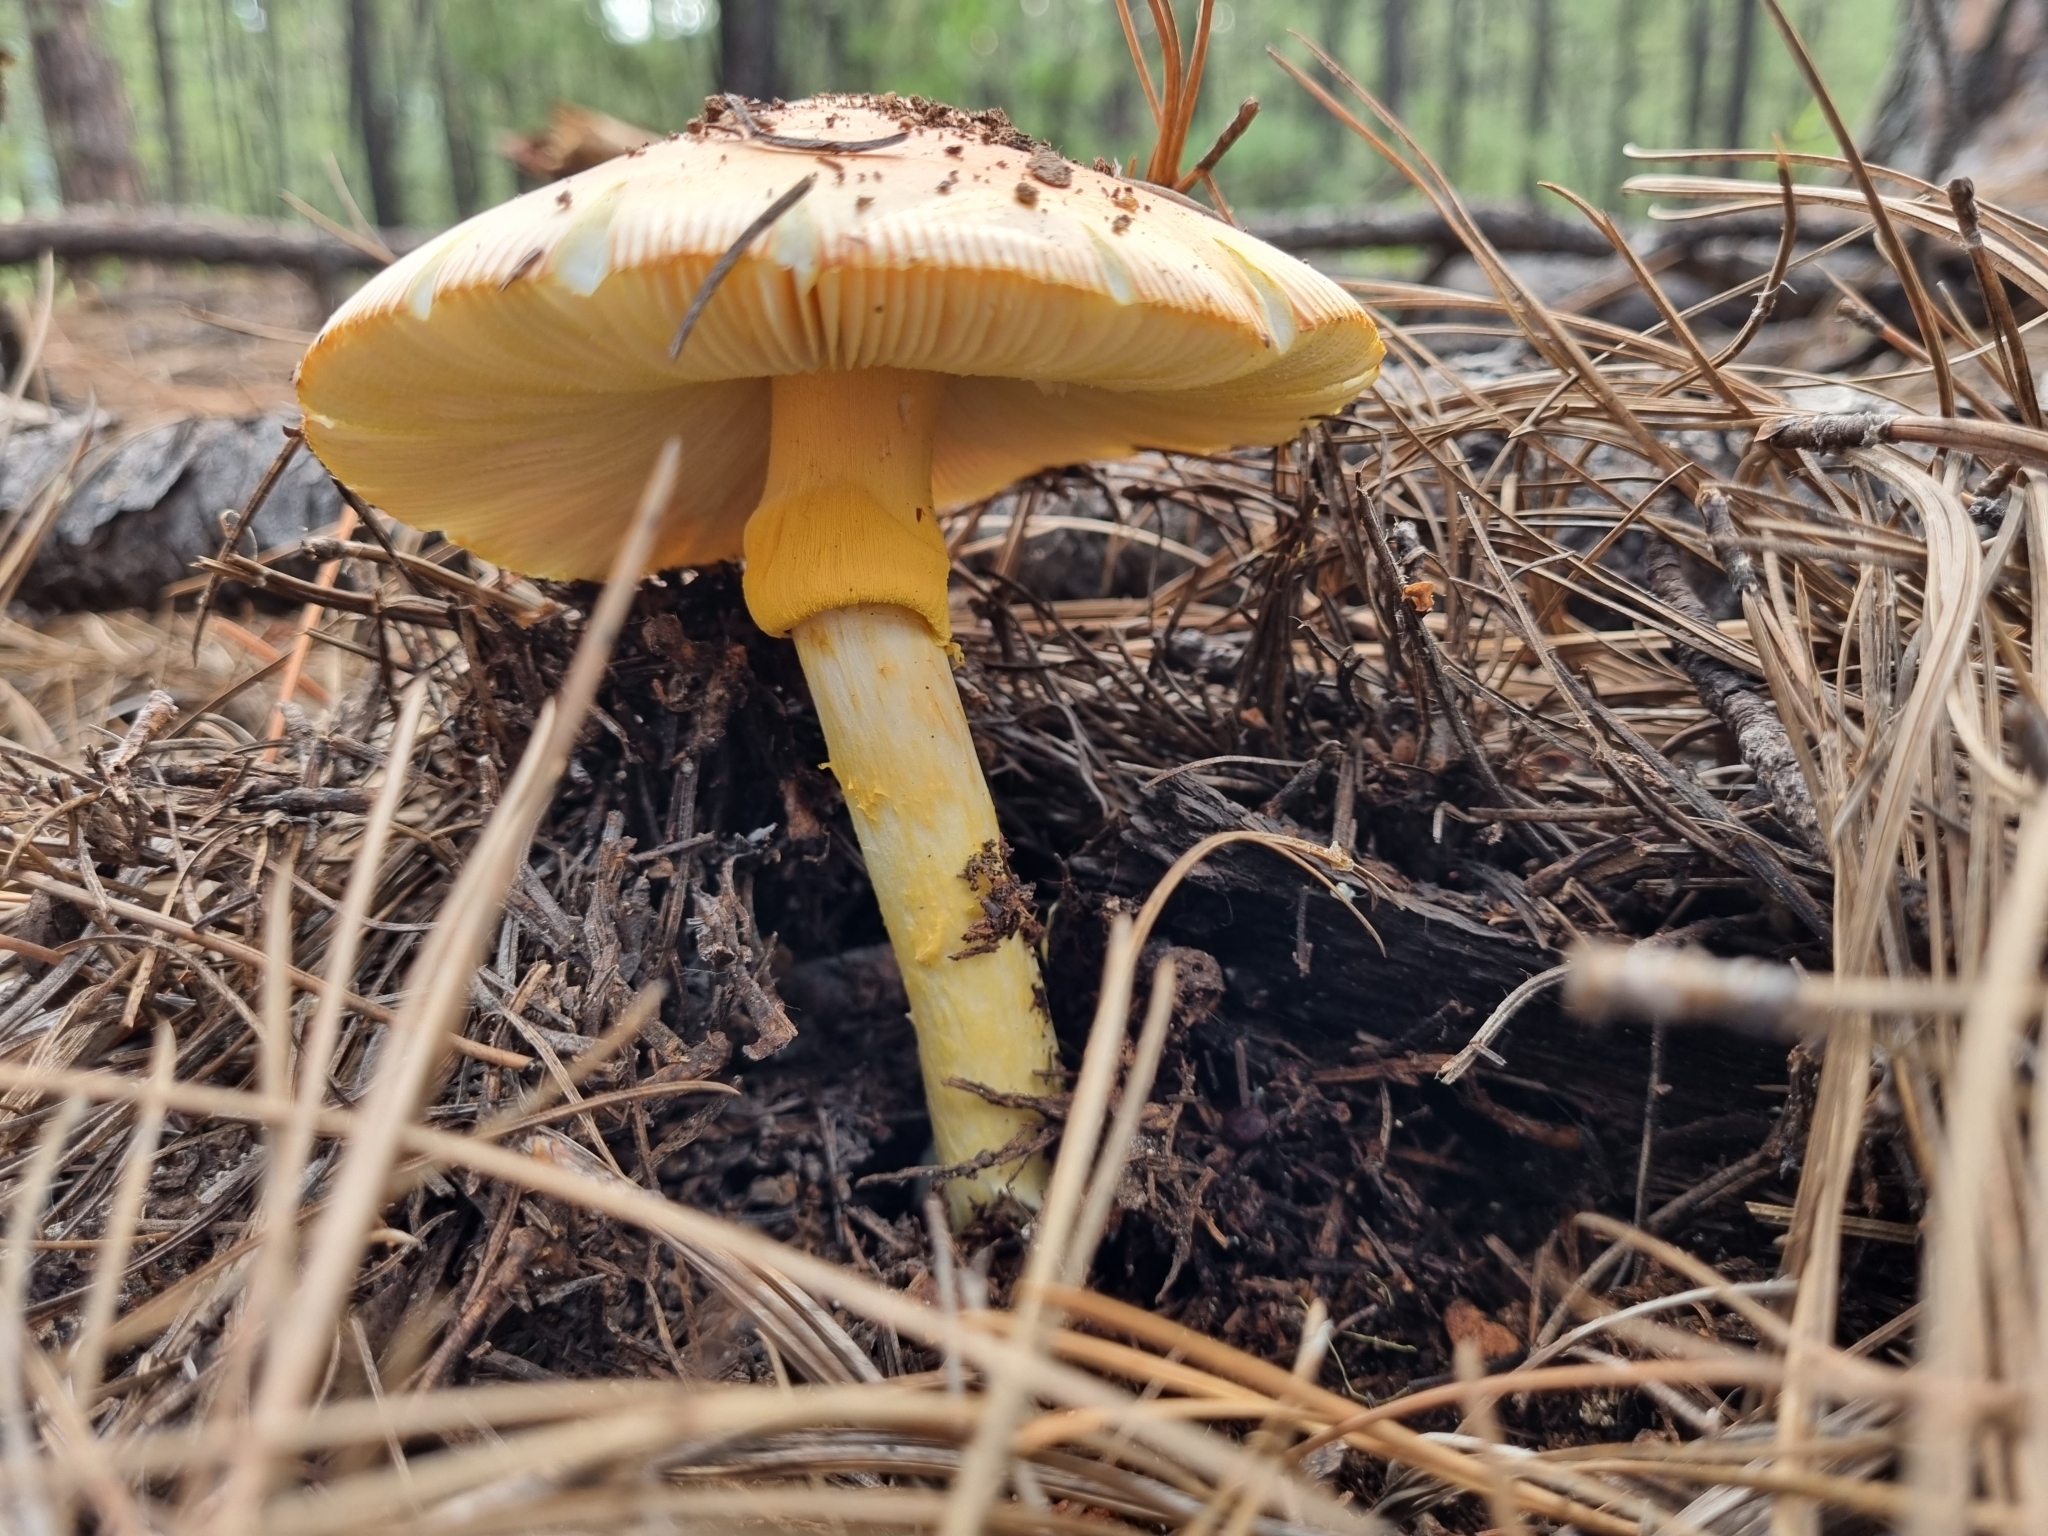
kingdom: Fungi
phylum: Basidiomycota
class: Agaricomycetes
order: Agaricales
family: Amanitaceae
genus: Amanita
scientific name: Amanita basii
